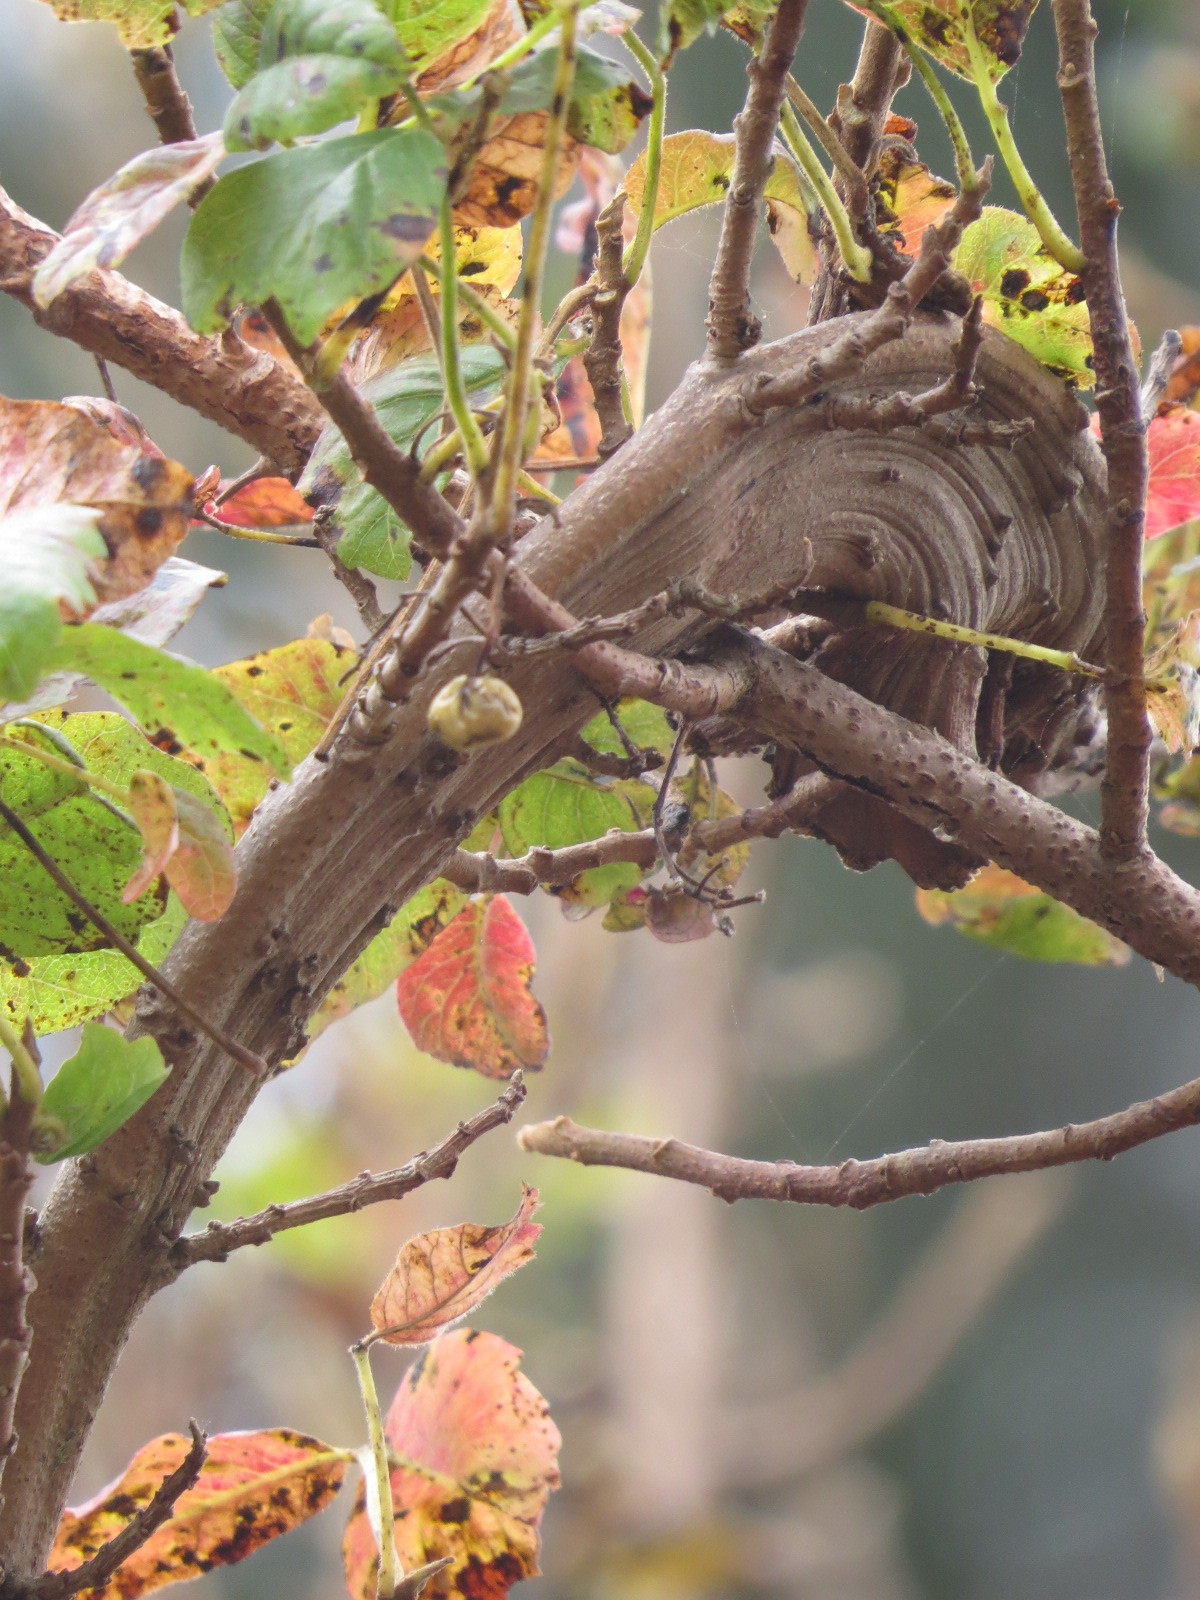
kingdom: Plantae
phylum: Tracheophyta
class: Magnoliopsida
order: Sapindales
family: Anacardiaceae
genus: Toxicodendron
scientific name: Toxicodendron diversilobum
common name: Pacific poison-oak
